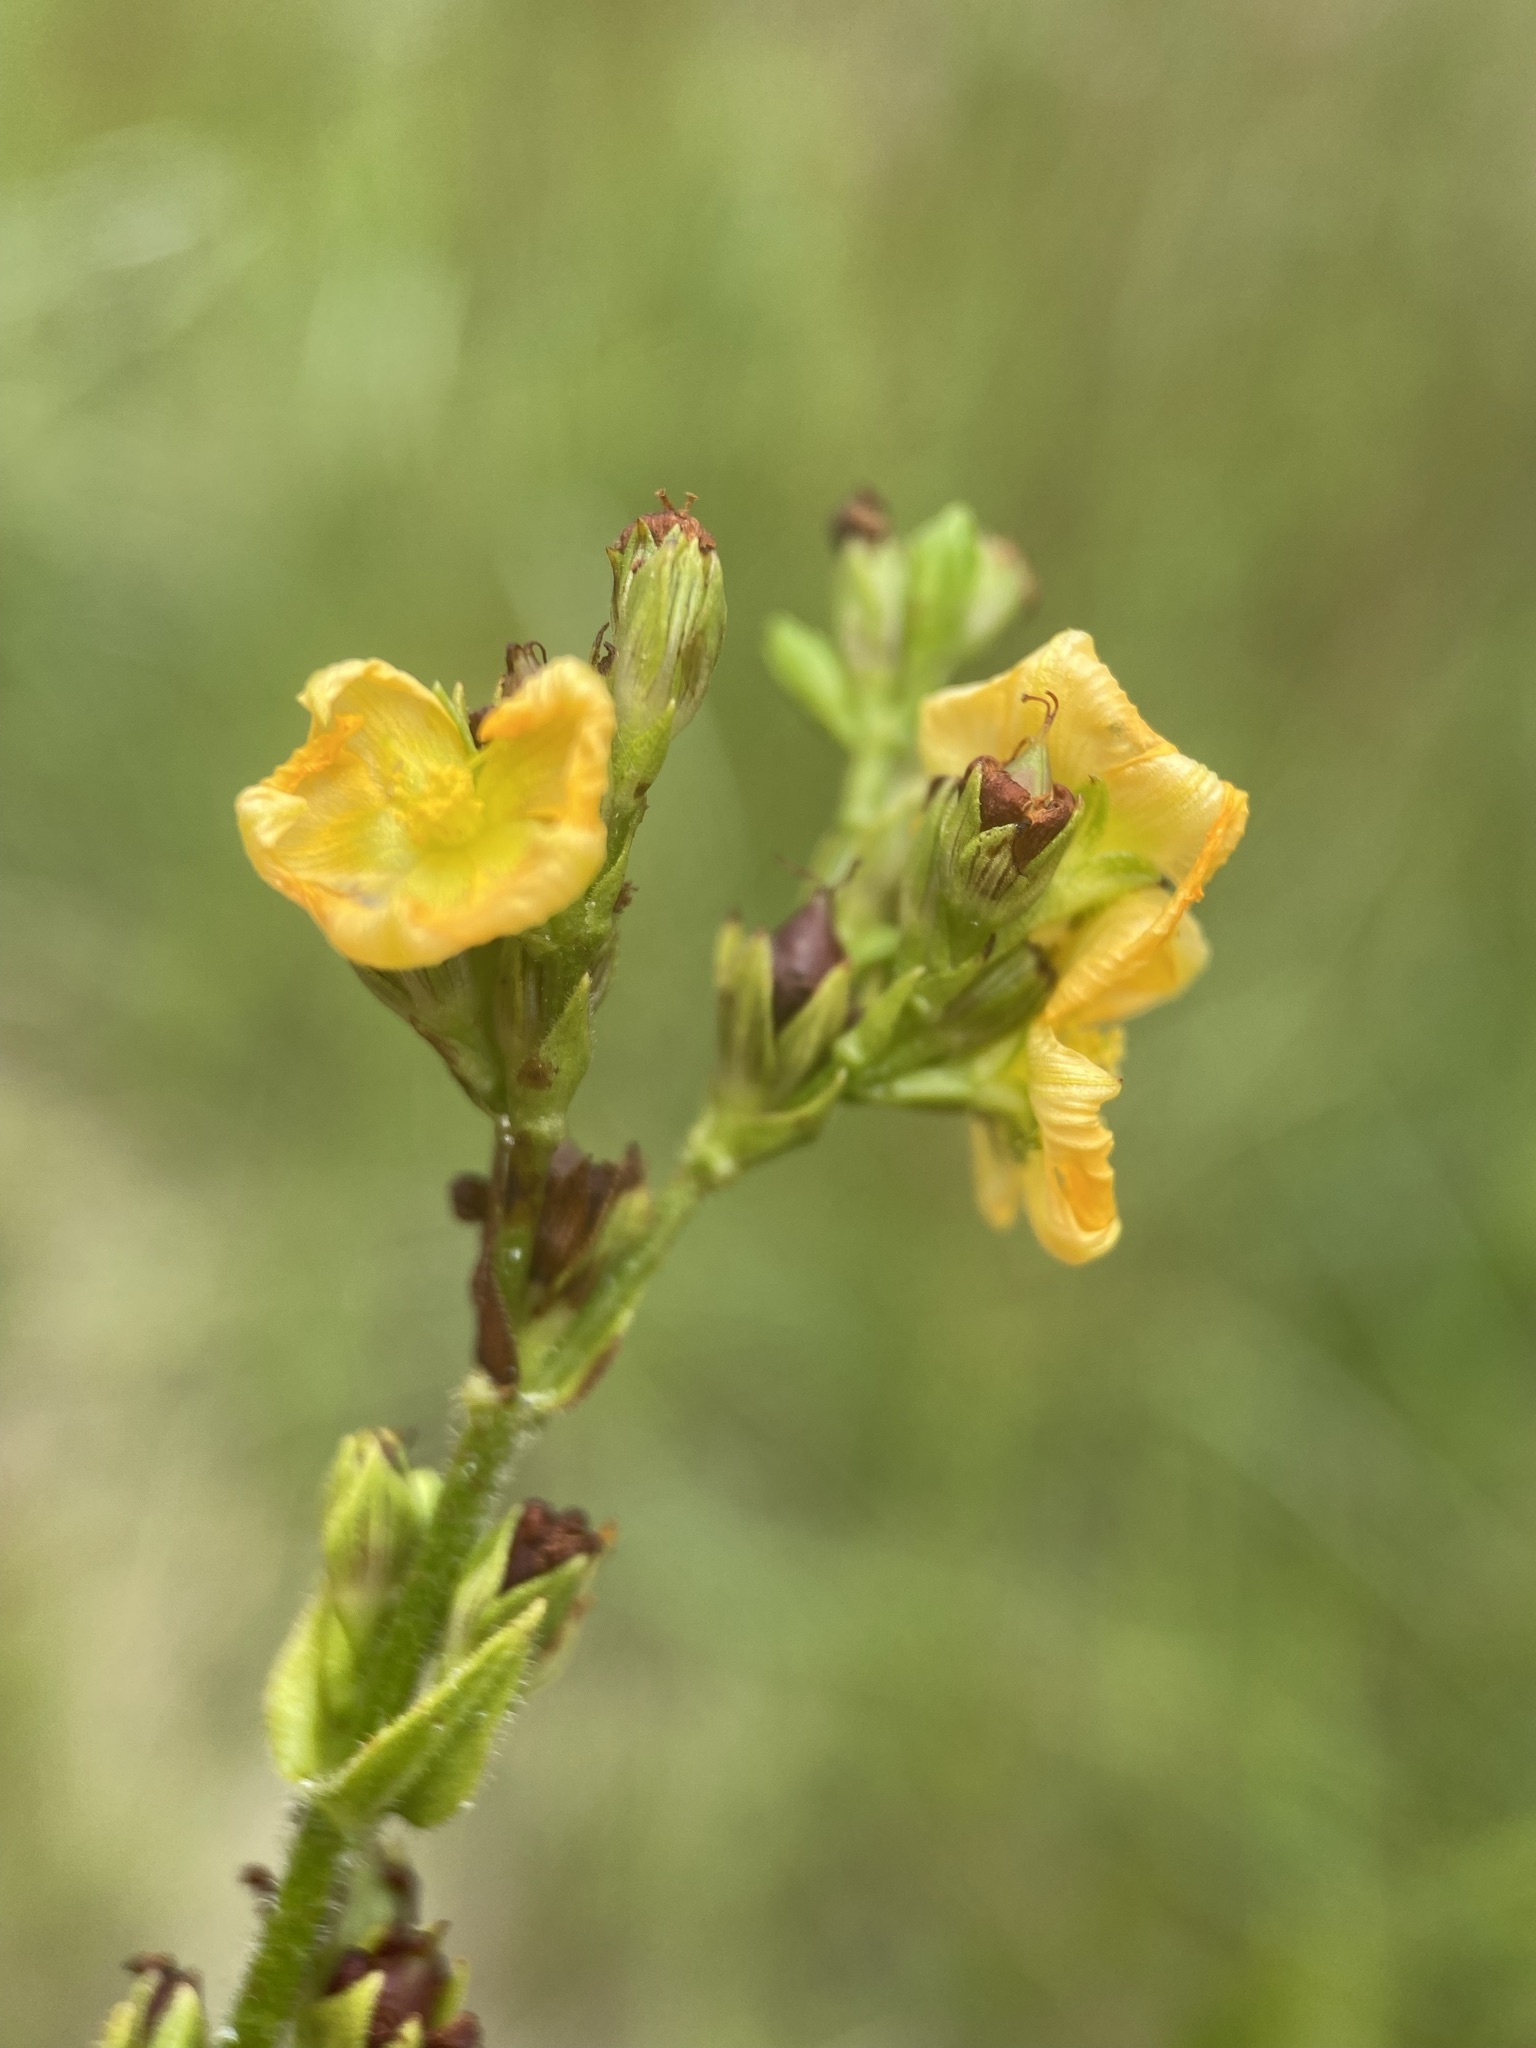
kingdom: Plantae
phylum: Tracheophyta
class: Magnoliopsida
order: Malpighiales
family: Hypericaceae
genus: Hypericum
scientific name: Hypericum setosum
